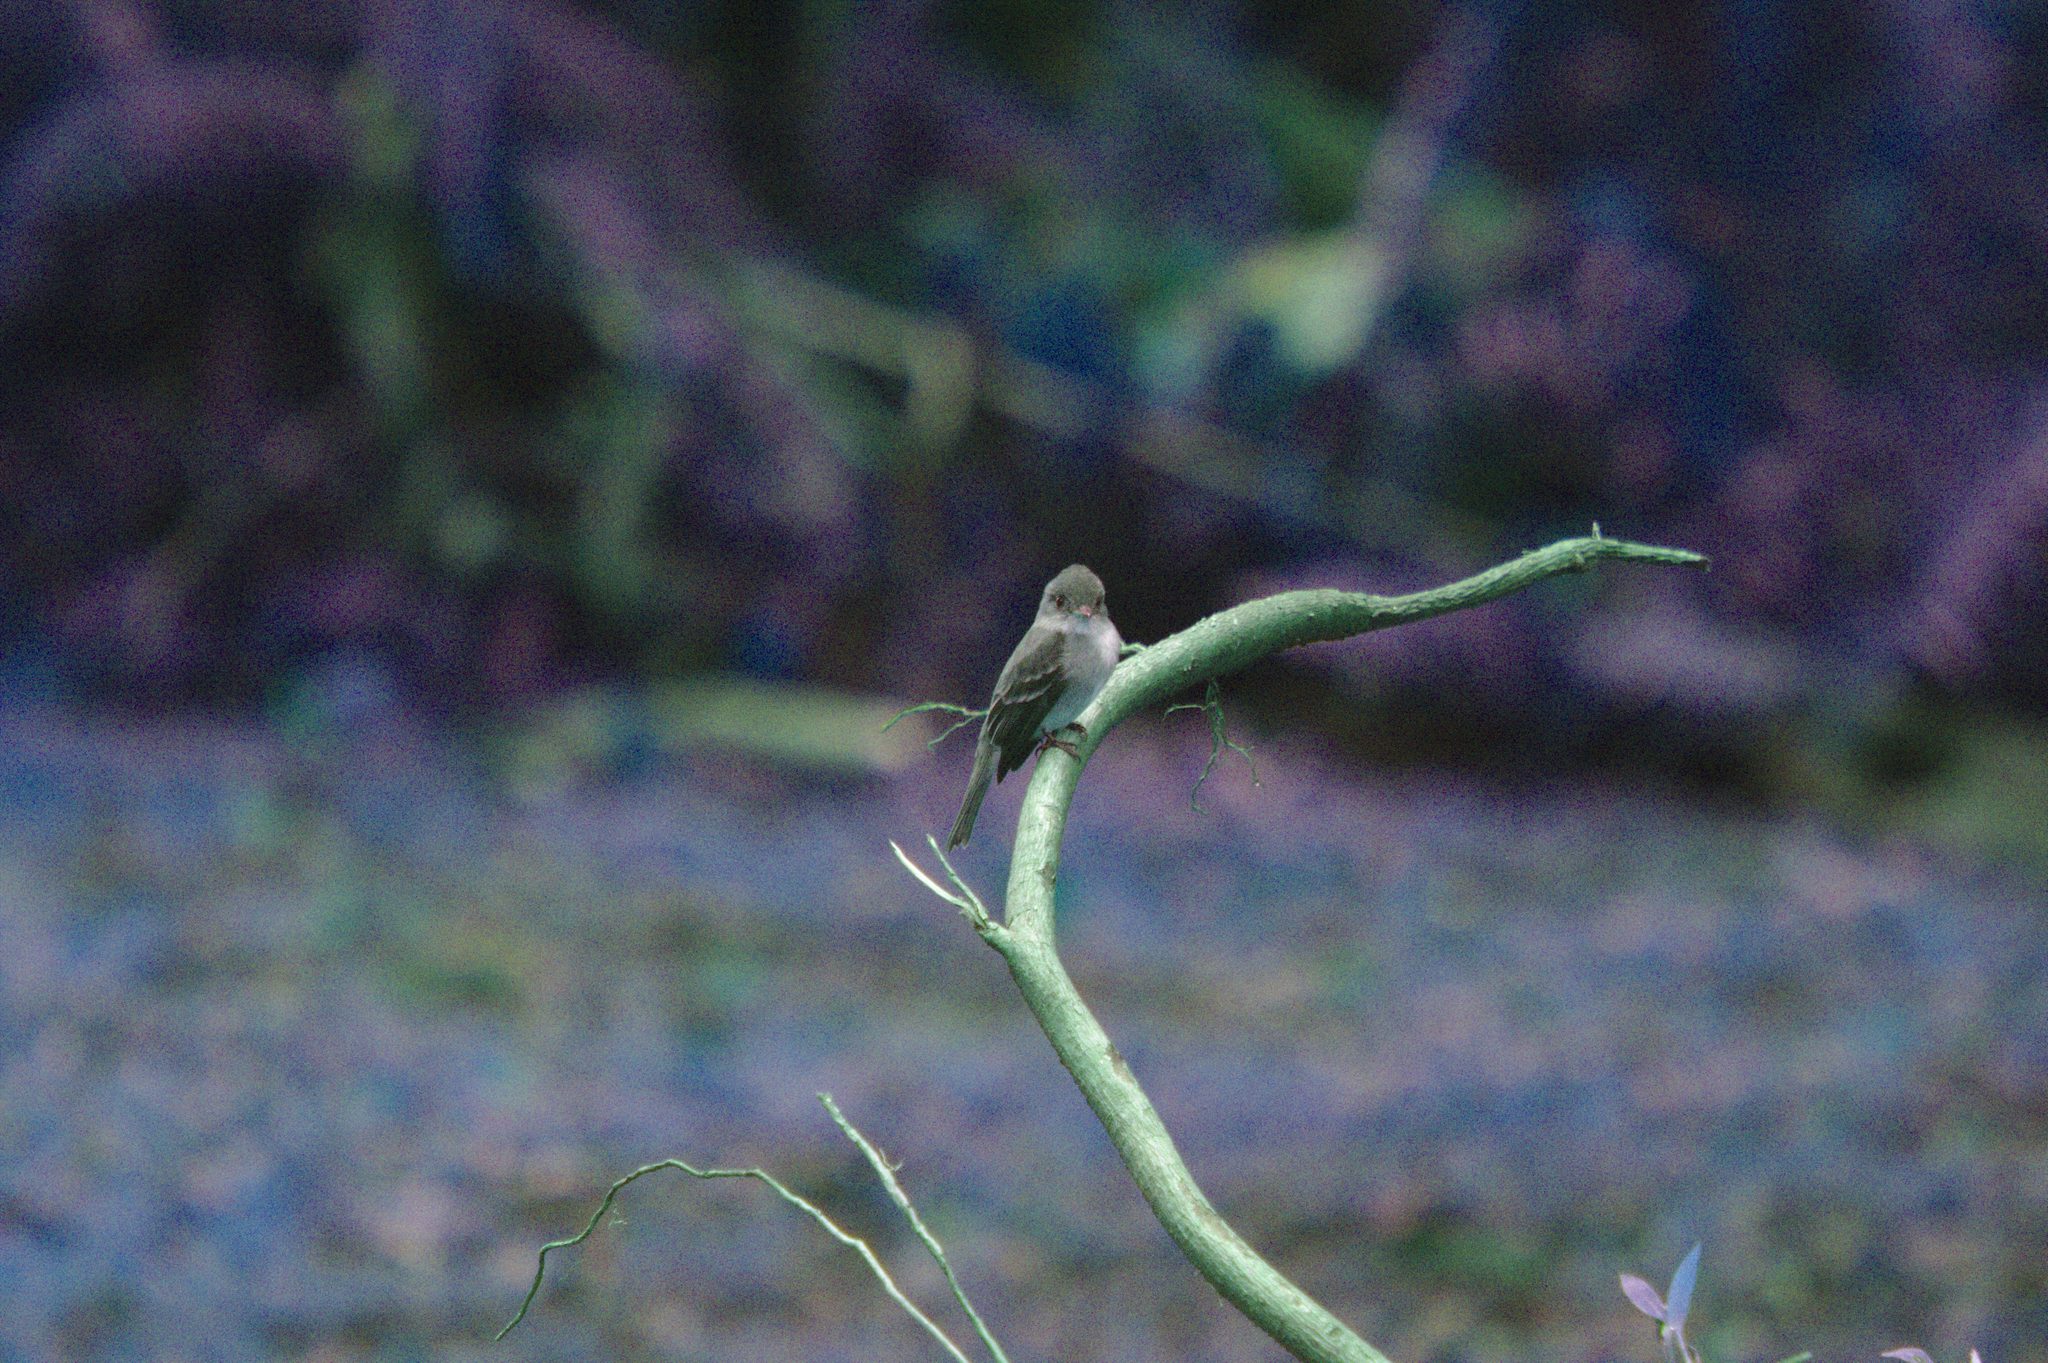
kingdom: Animalia
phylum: Chordata
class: Aves
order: Passeriformes
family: Tyrannidae
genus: Contopus
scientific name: Contopus virens
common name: Eastern wood-pewee
